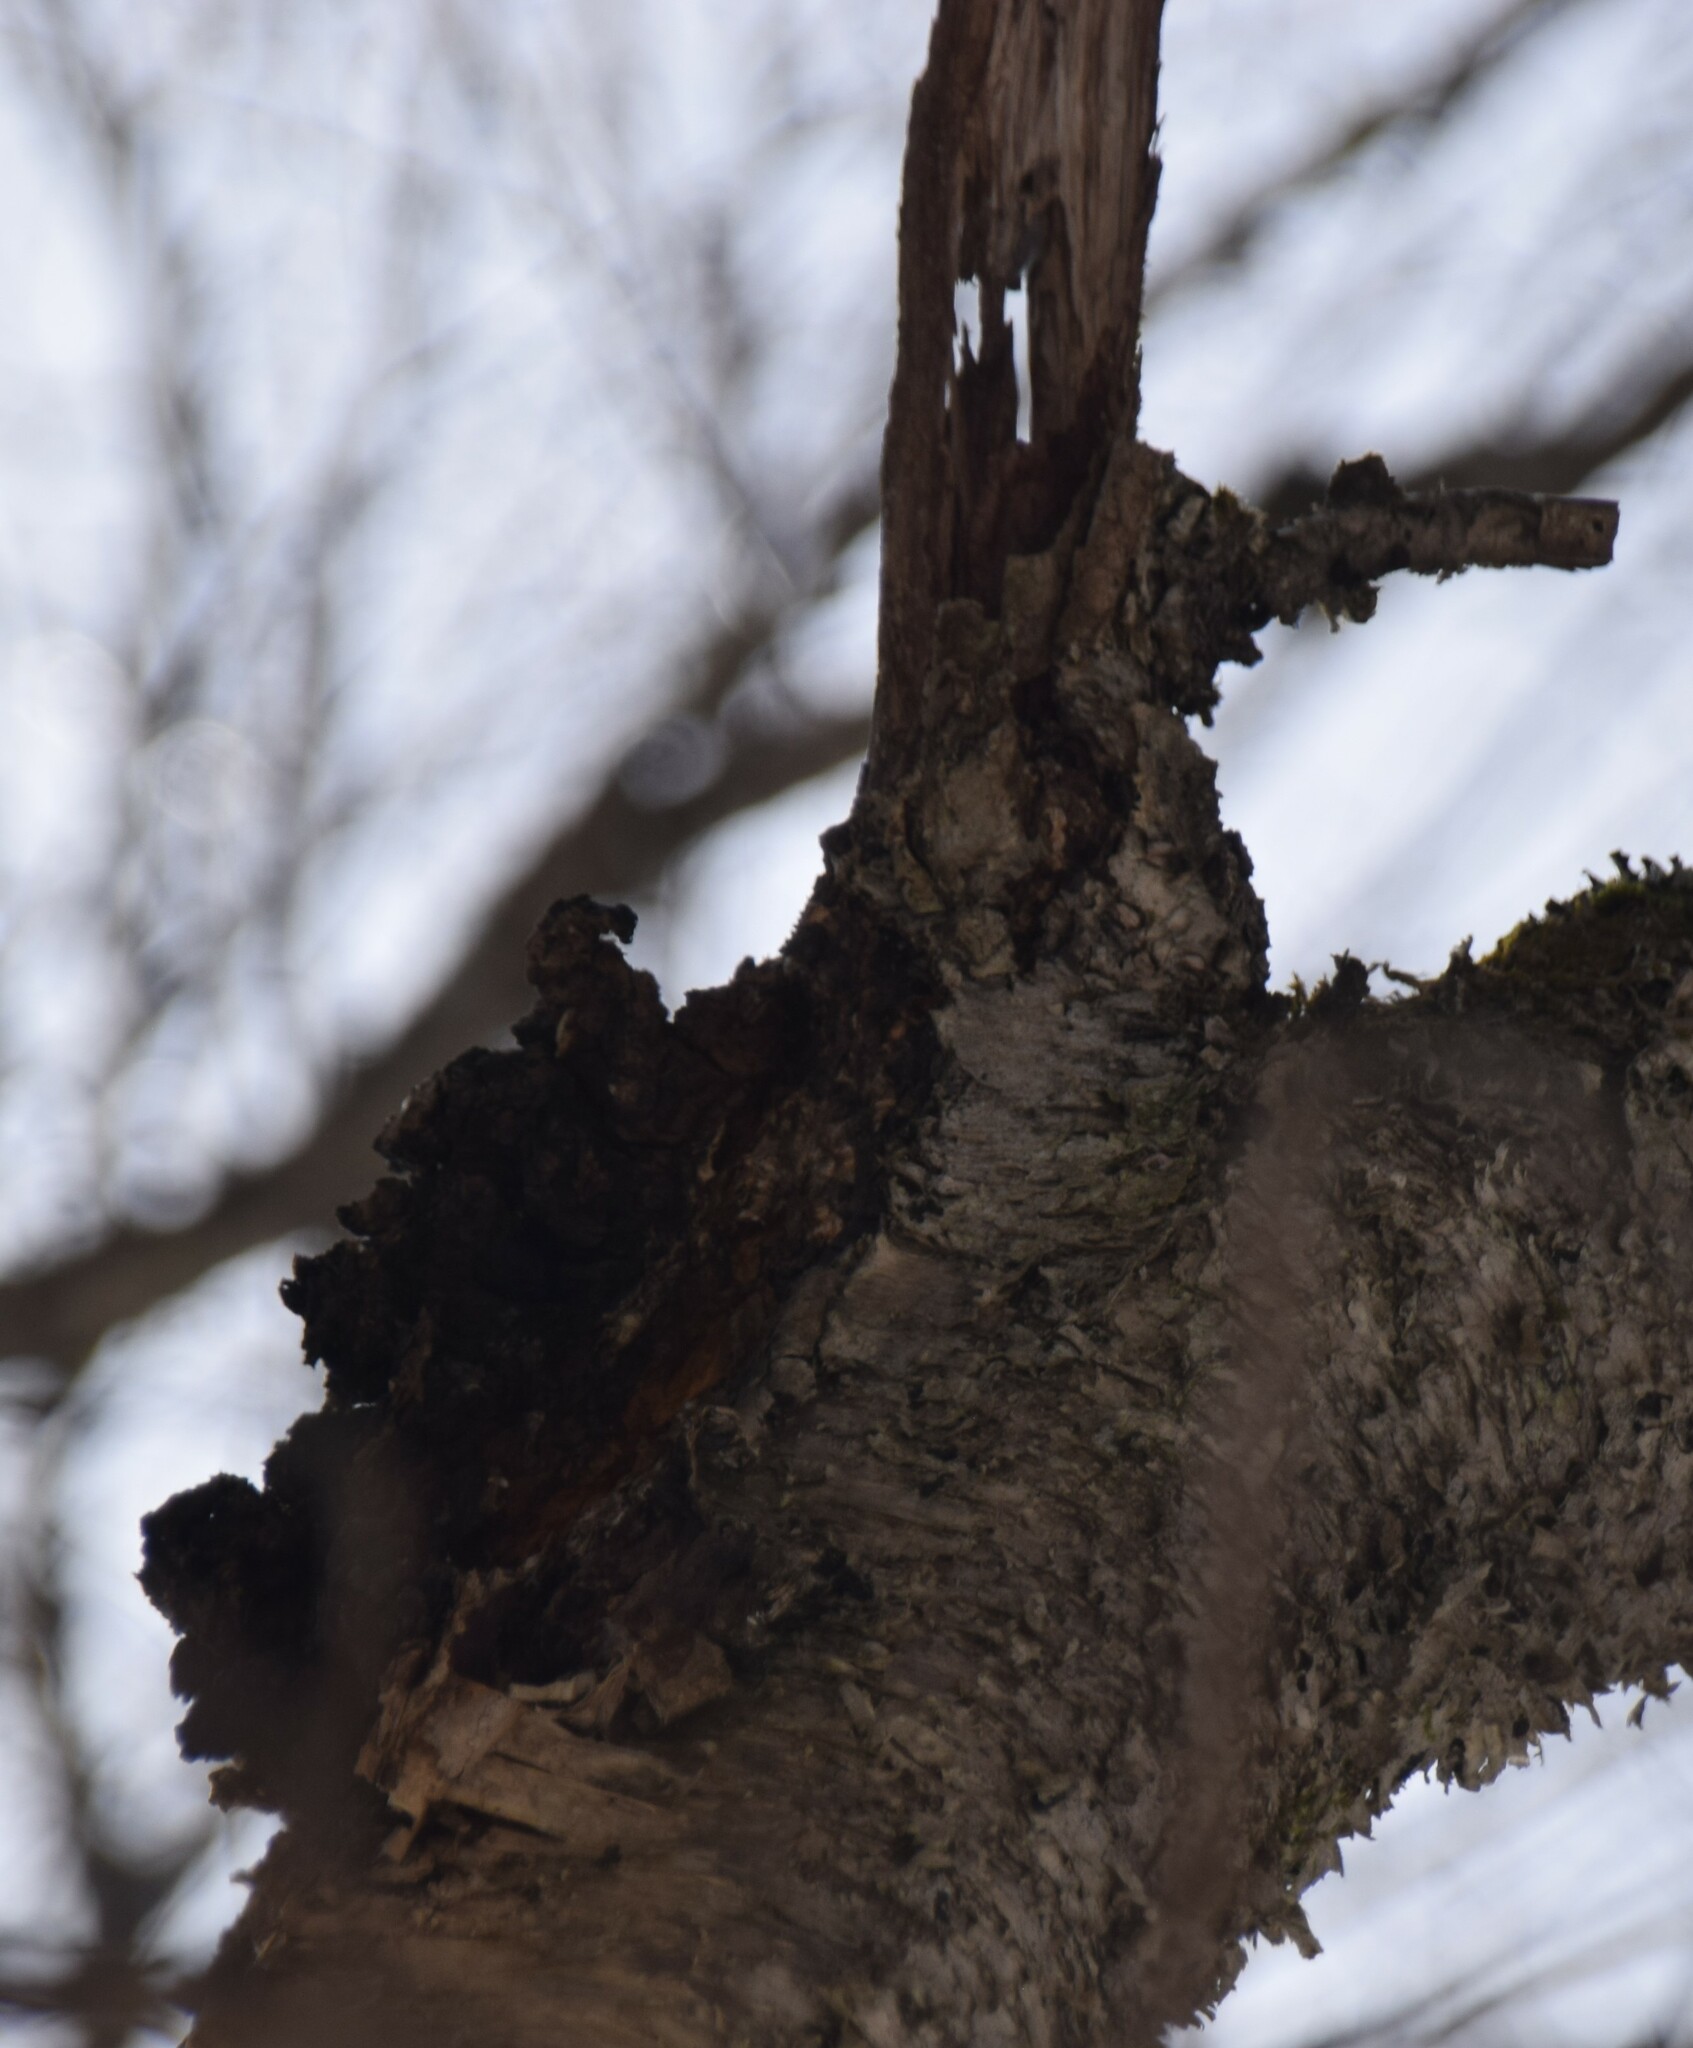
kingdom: Fungi
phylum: Basidiomycota
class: Agaricomycetes
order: Hymenochaetales
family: Hymenochaetaceae
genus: Inonotus
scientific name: Inonotus obliquus
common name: Chaga
